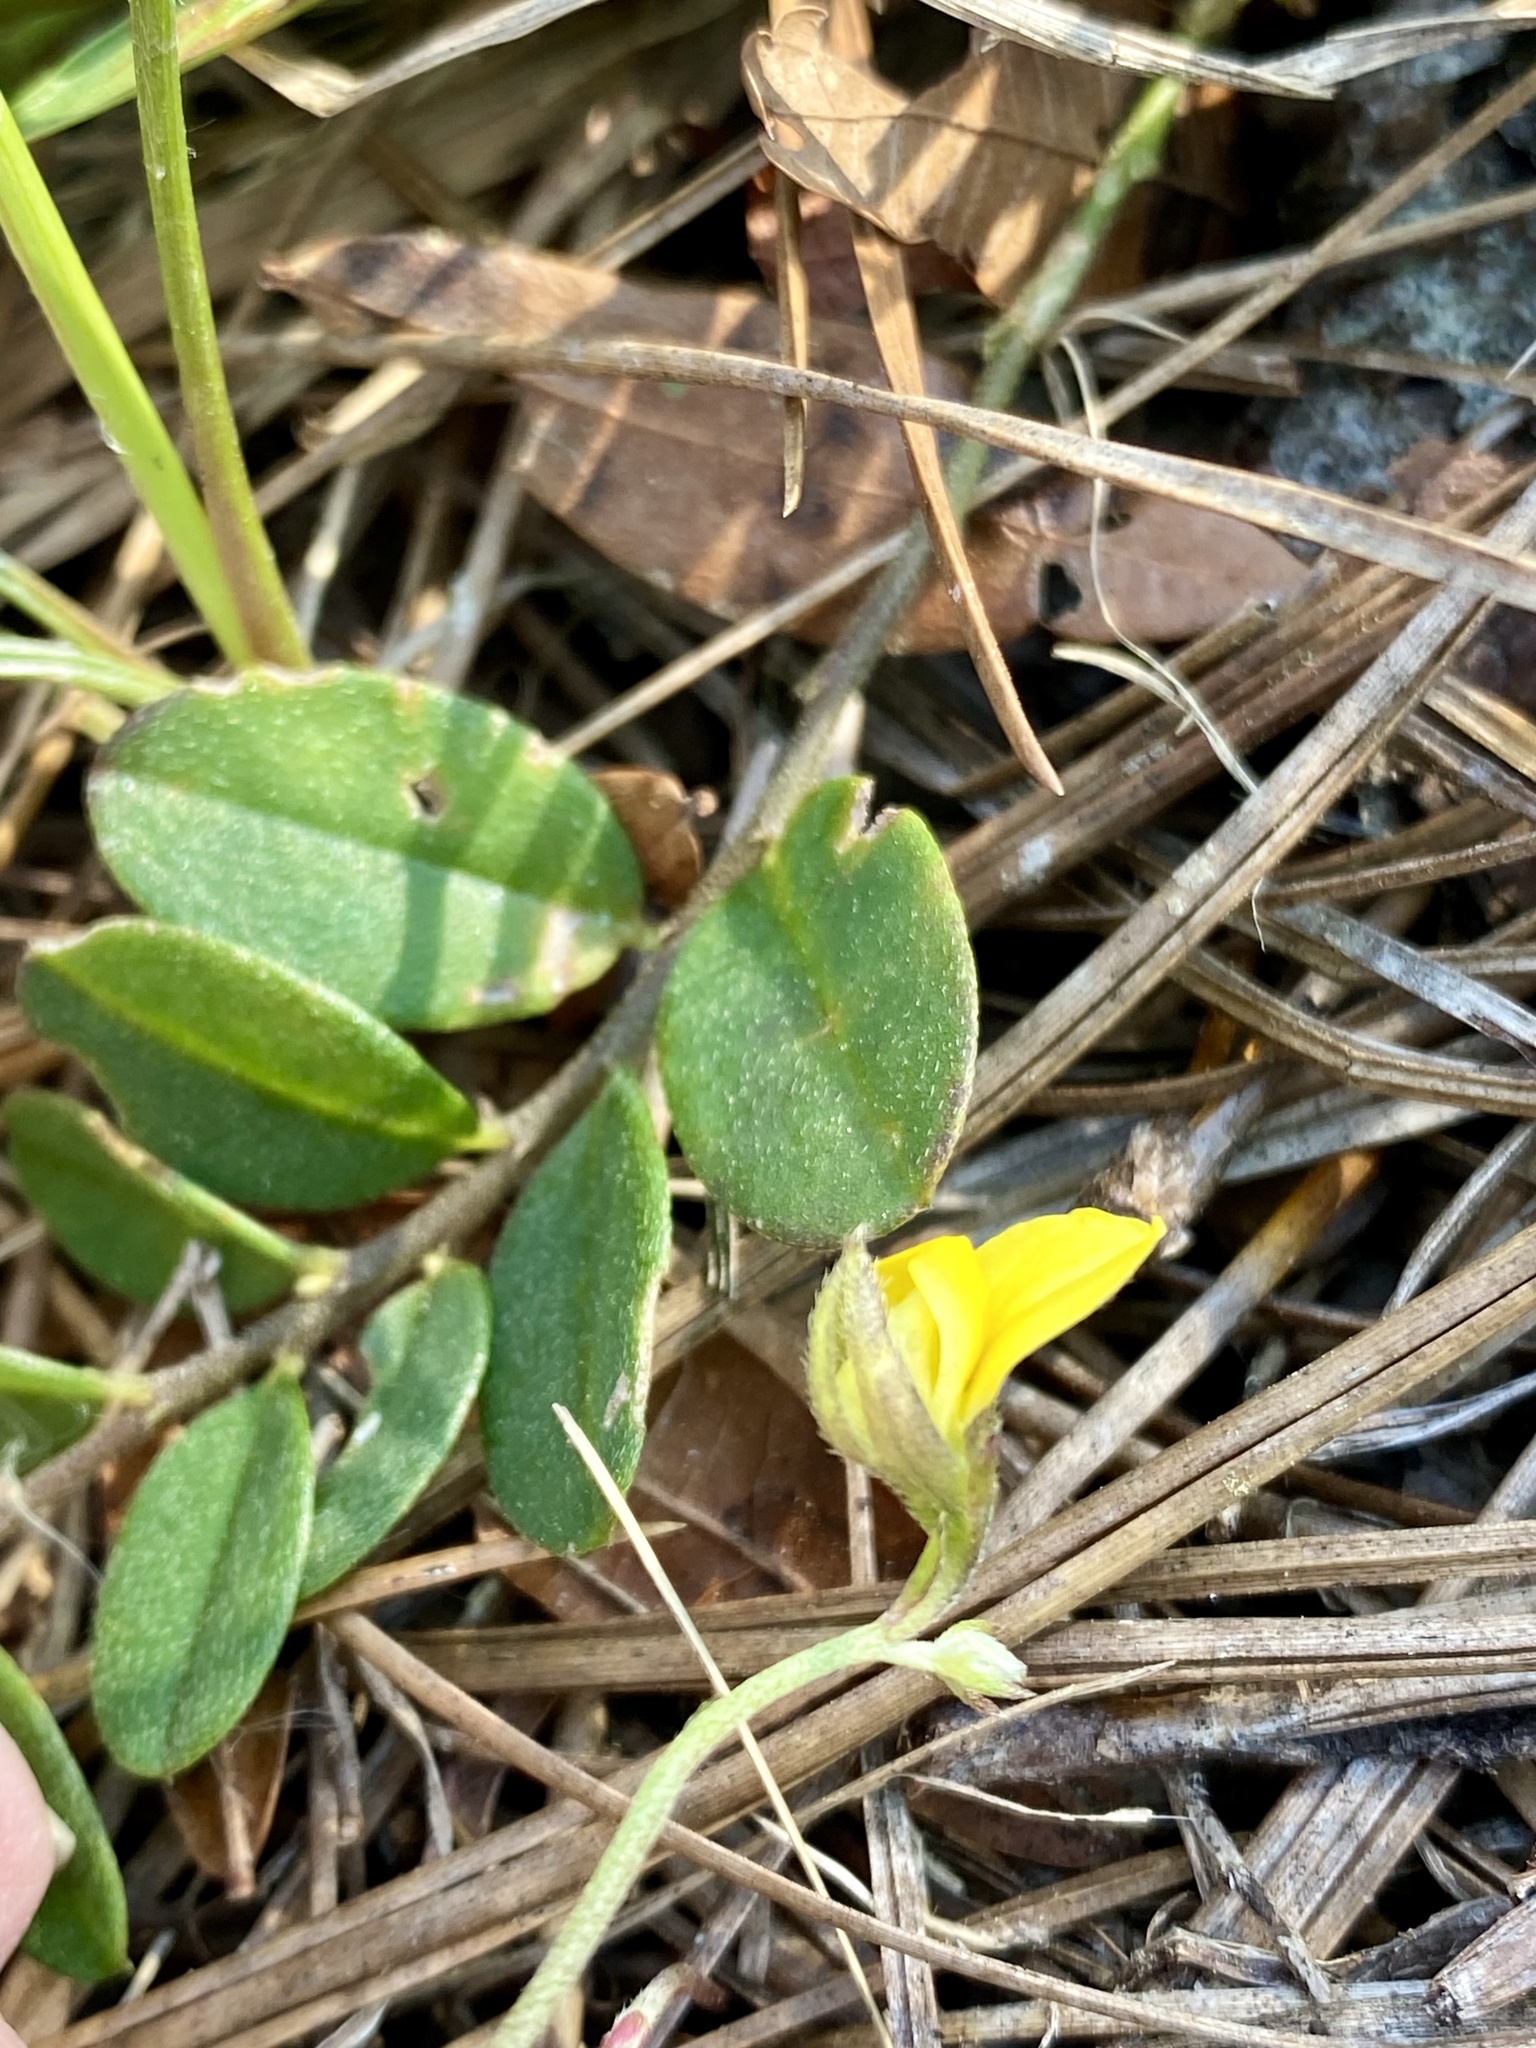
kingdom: Plantae
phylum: Tracheophyta
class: Magnoliopsida
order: Fabales
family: Fabaceae
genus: Crotalaria
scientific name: Crotalaria rotundifolia
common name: Prostrate rattlebox
